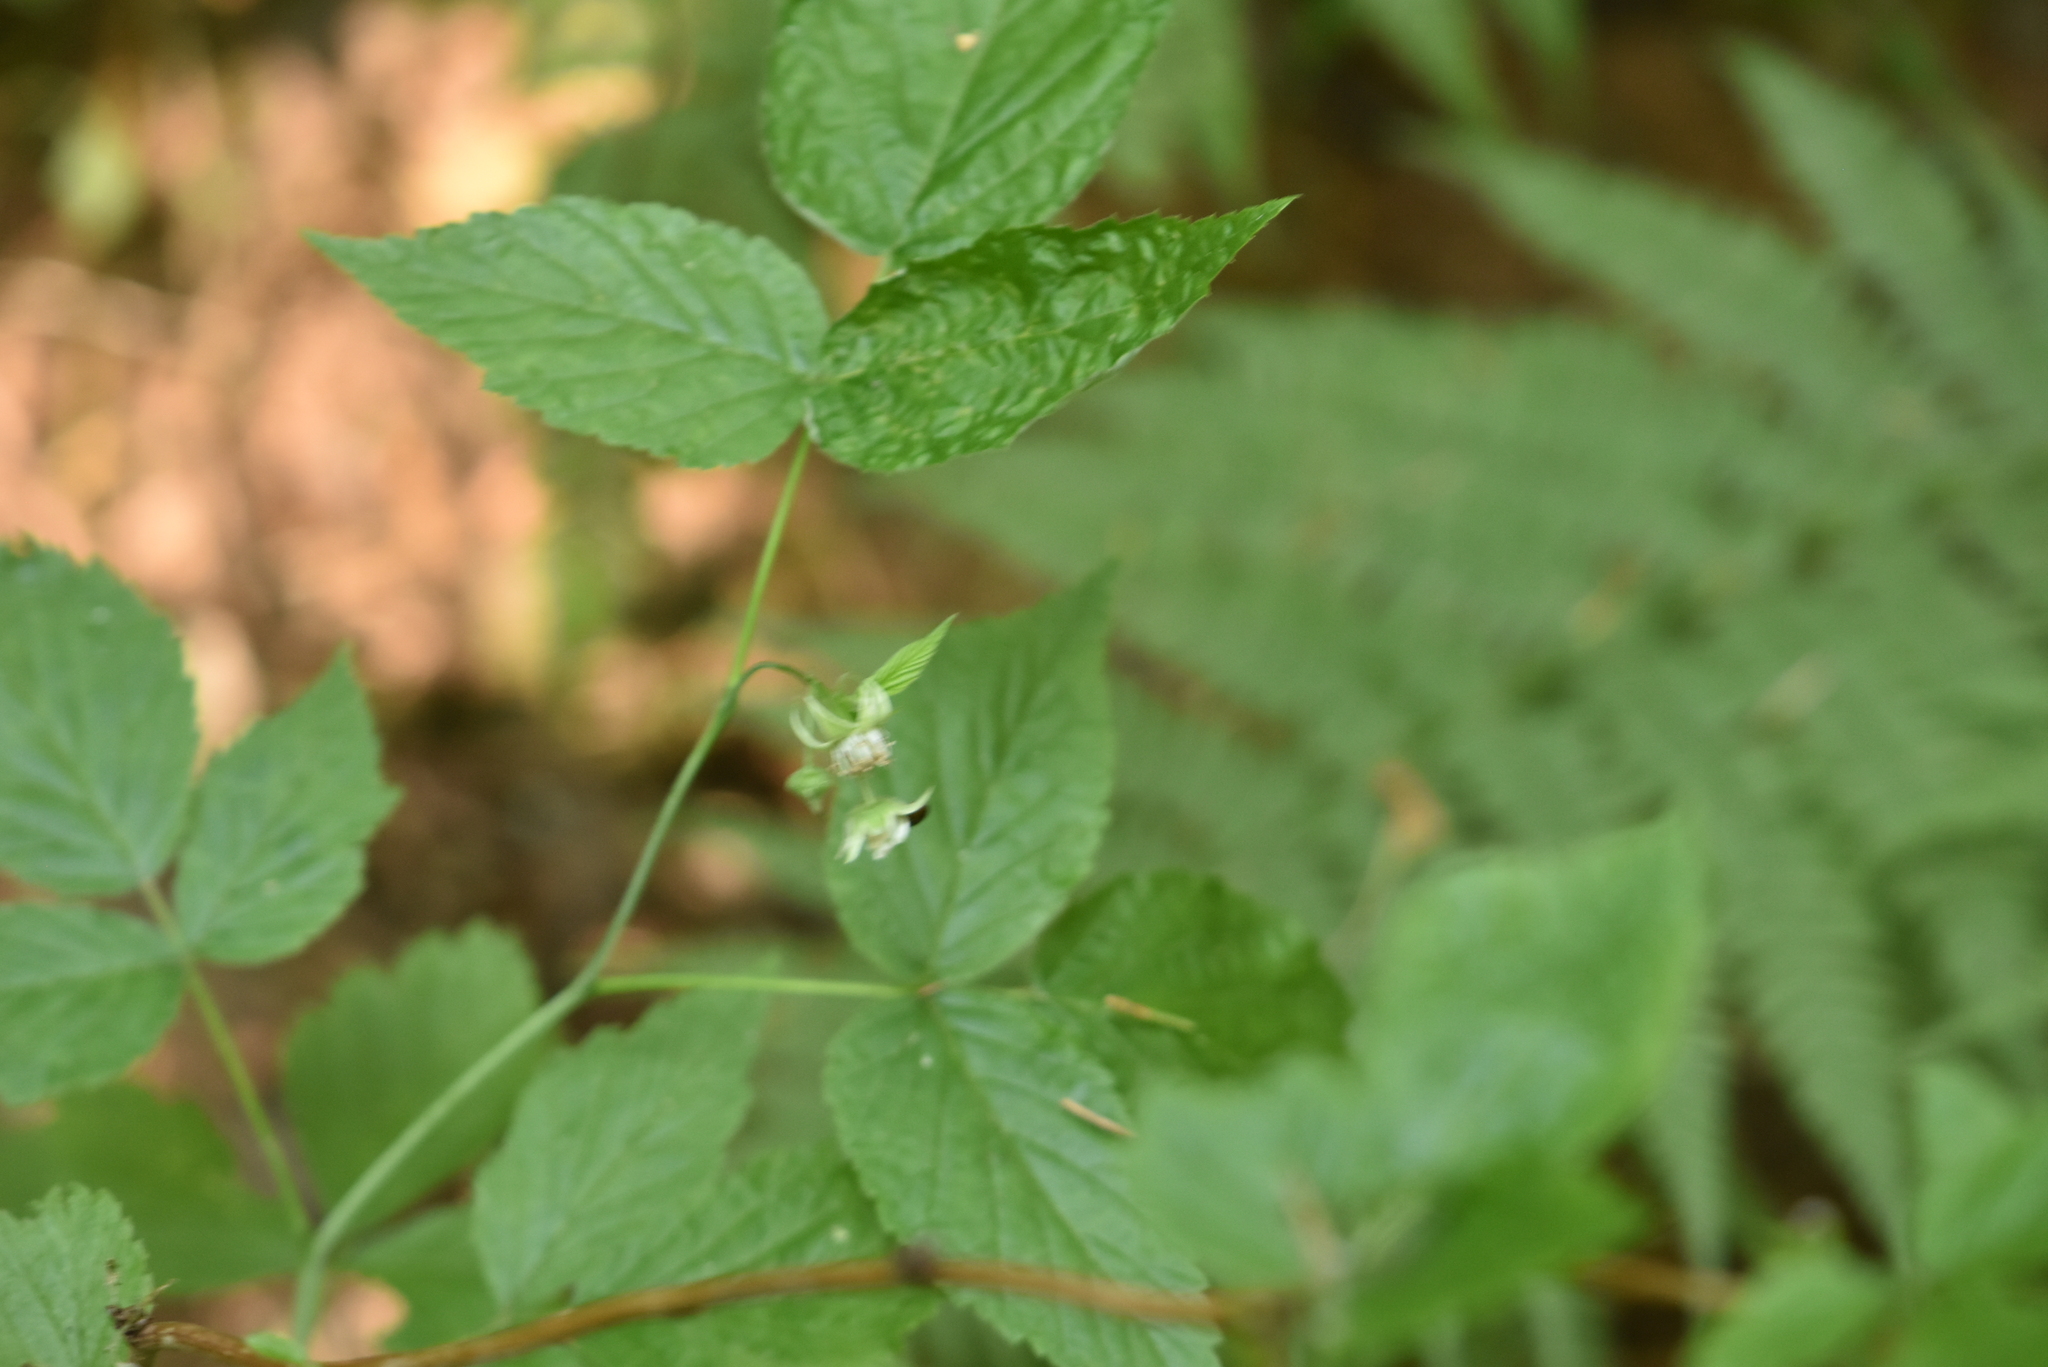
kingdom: Plantae
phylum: Tracheophyta
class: Magnoliopsida
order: Rosales
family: Rosaceae
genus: Rubus
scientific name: Rubus idaeus
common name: Raspberry
